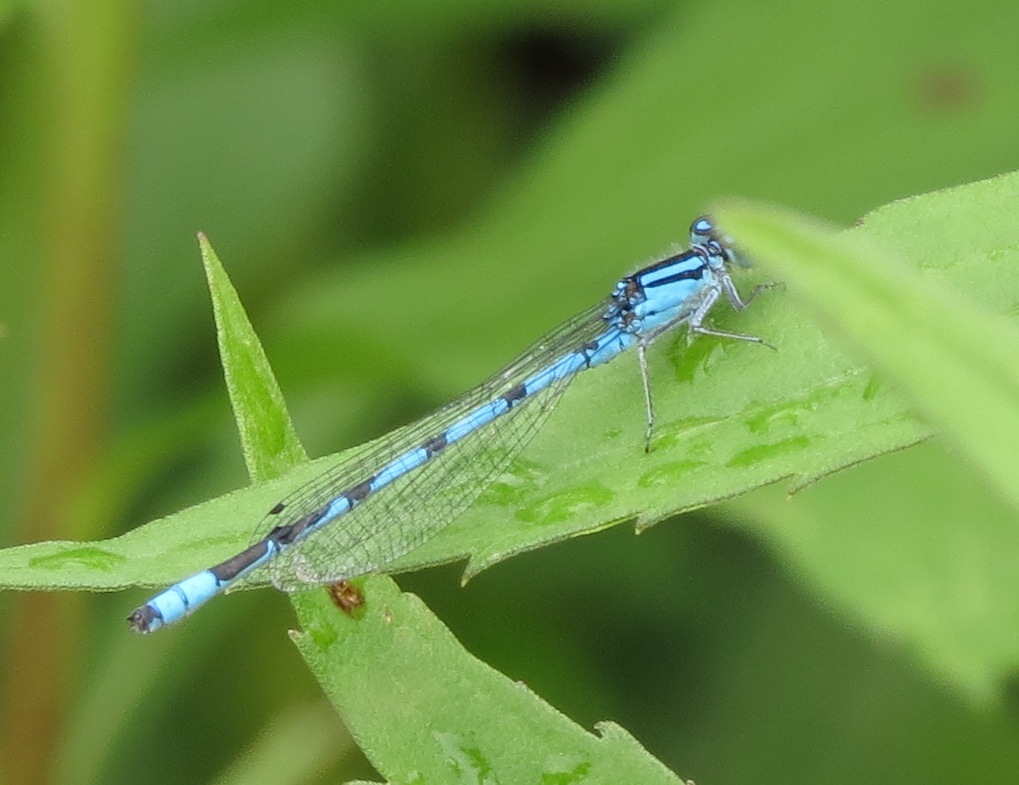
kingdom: Animalia
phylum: Arthropoda
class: Insecta
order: Odonata
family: Coenagrionidae
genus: Enallagma
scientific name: Enallagma ebrium
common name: Marsh bluet
